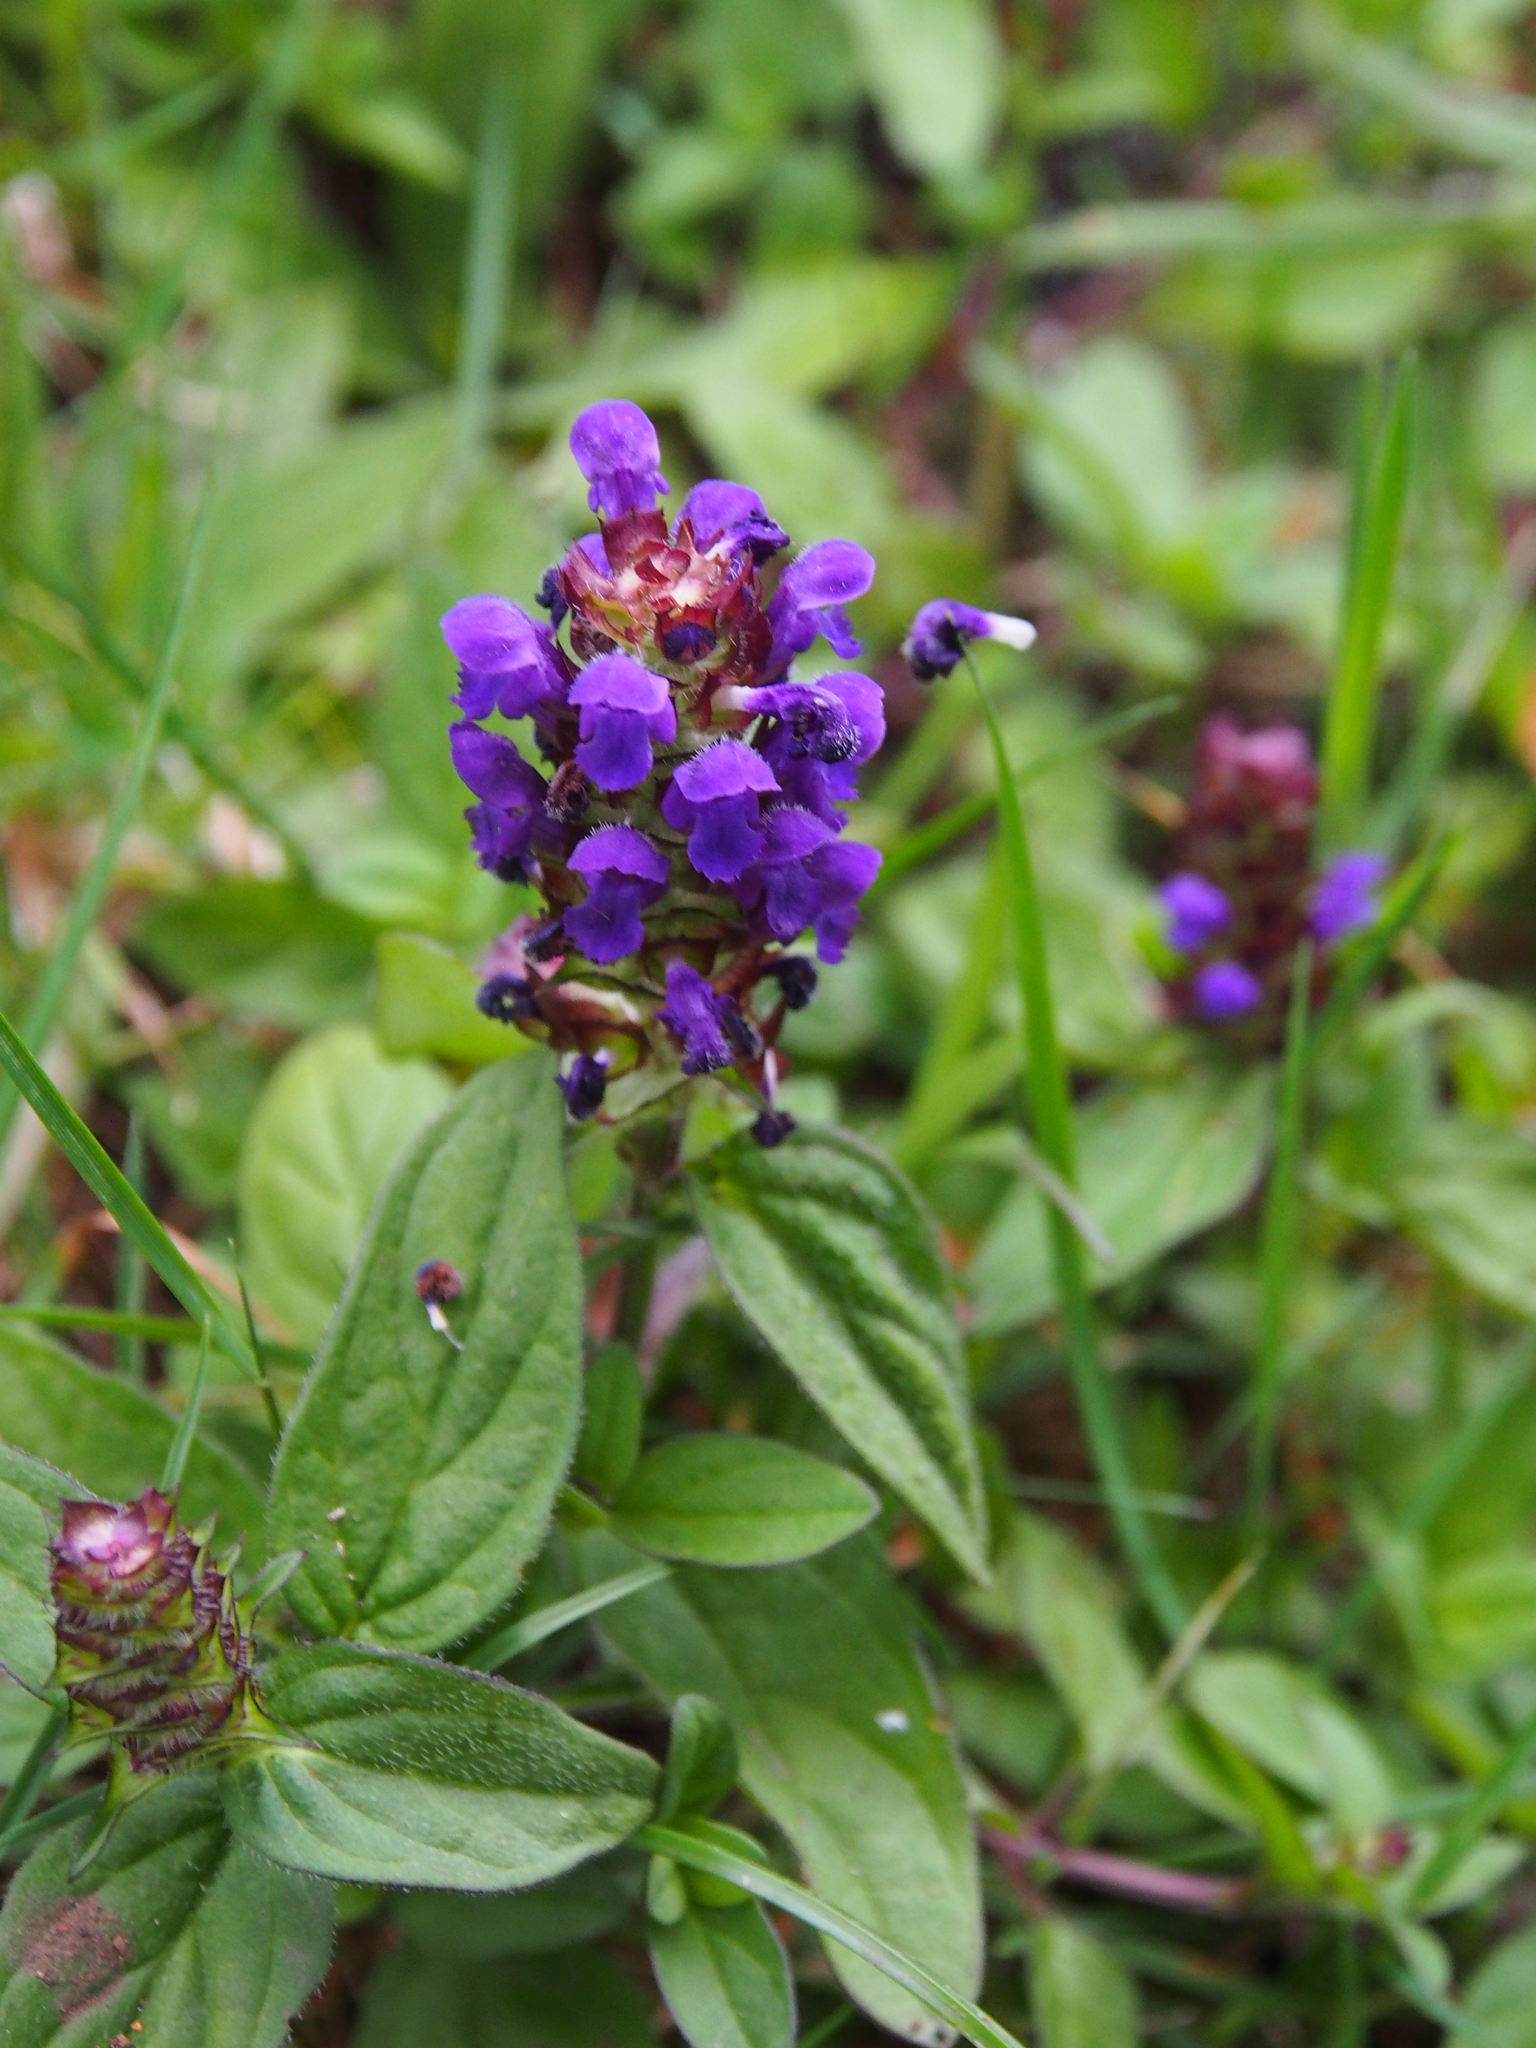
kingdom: Plantae
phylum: Tracheophyta
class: Magnoliopsida
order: Lamiales
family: Lamiaceae
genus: Prunella
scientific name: Prunella vulgaris
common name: Heal-all
